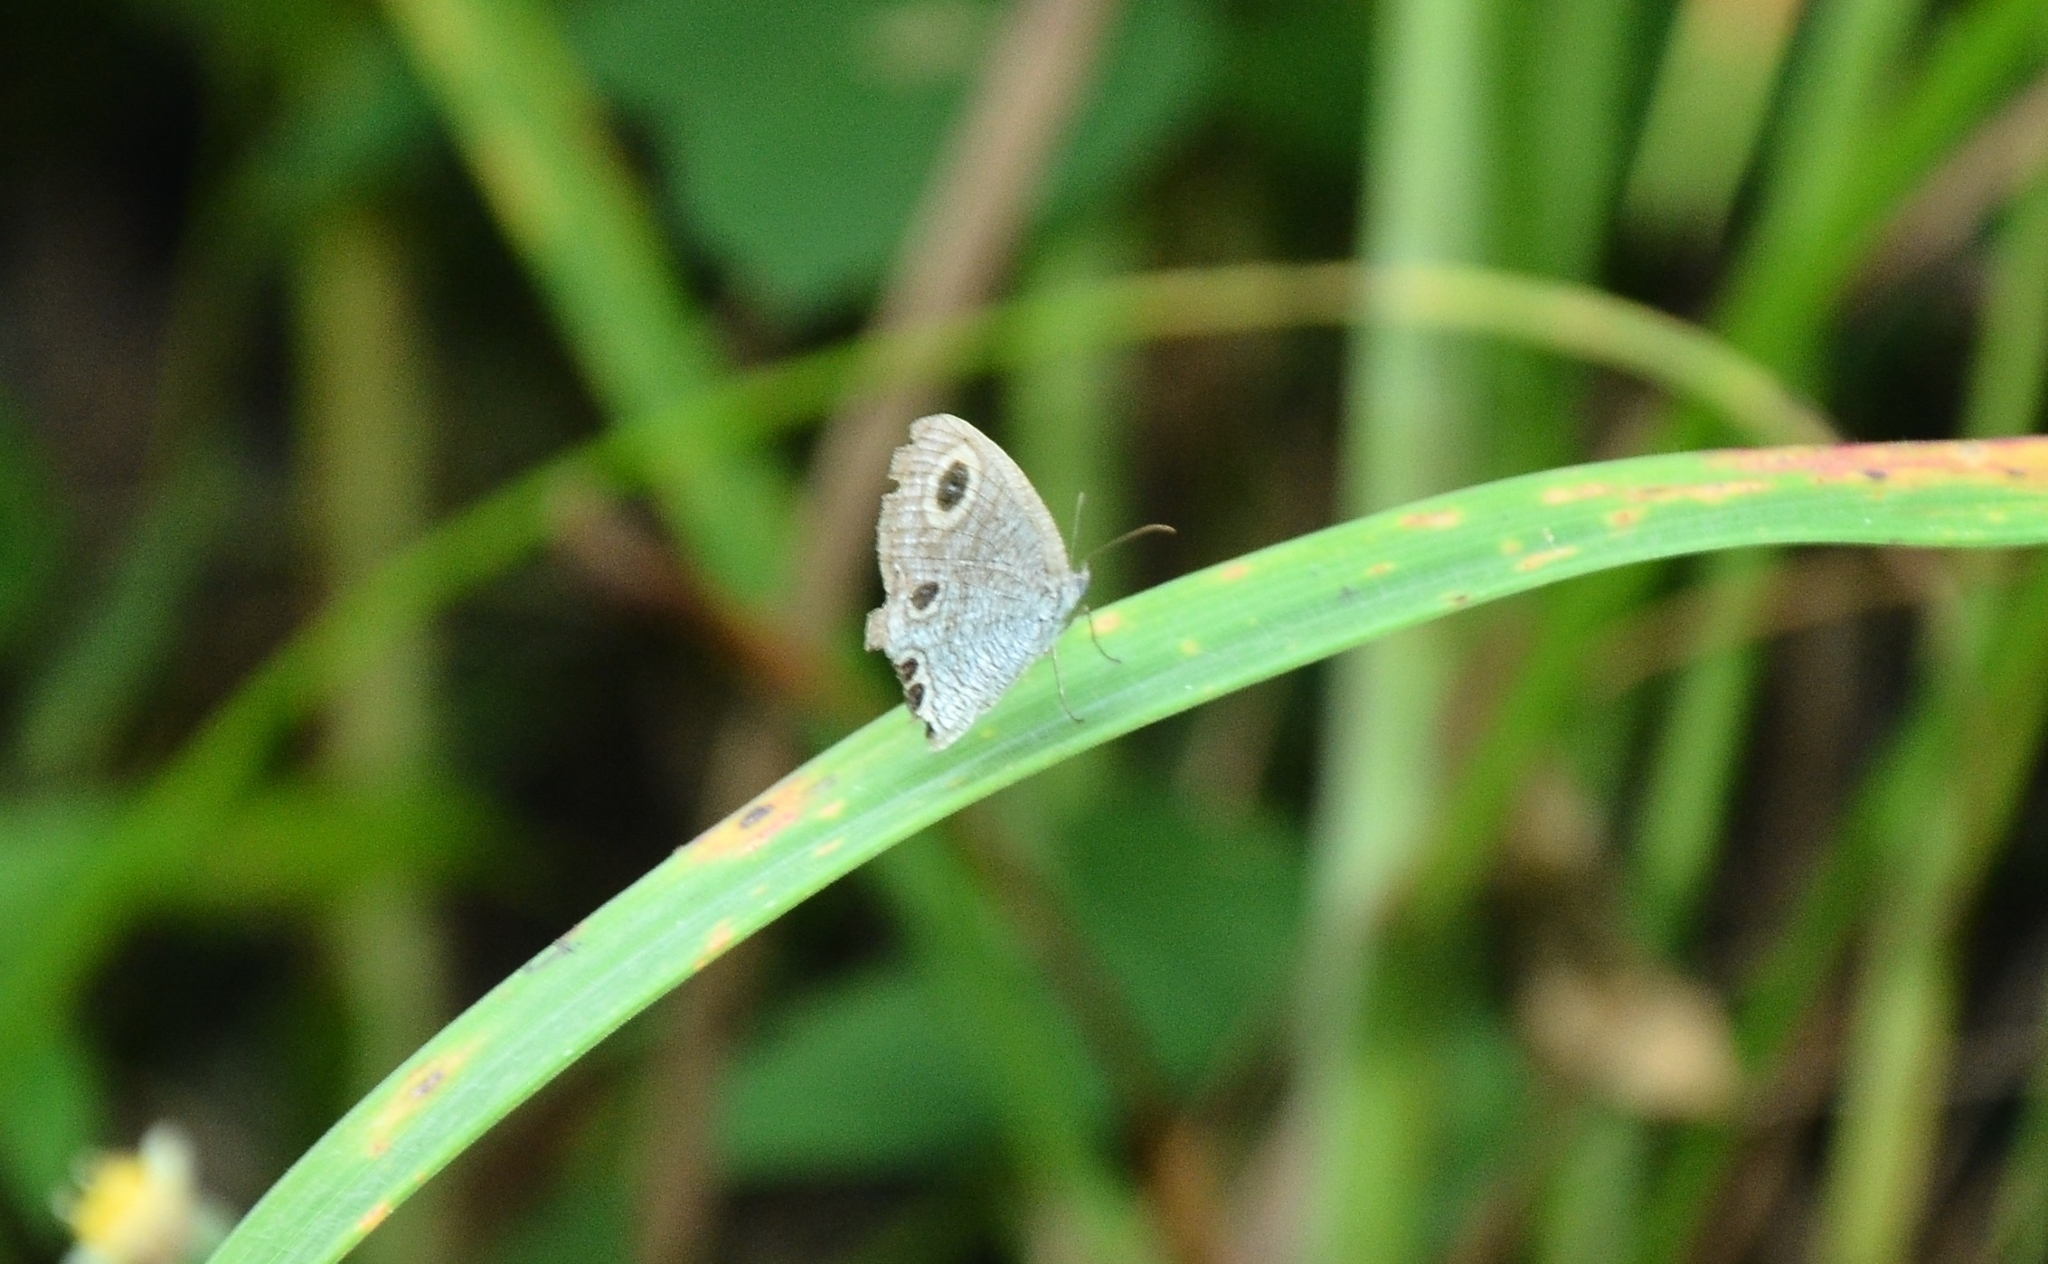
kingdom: Animalia
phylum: Arthropoda
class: Insecta
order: Lepidoptera
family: Nymphalidae
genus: Ypthima
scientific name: Ypthima huebneri
